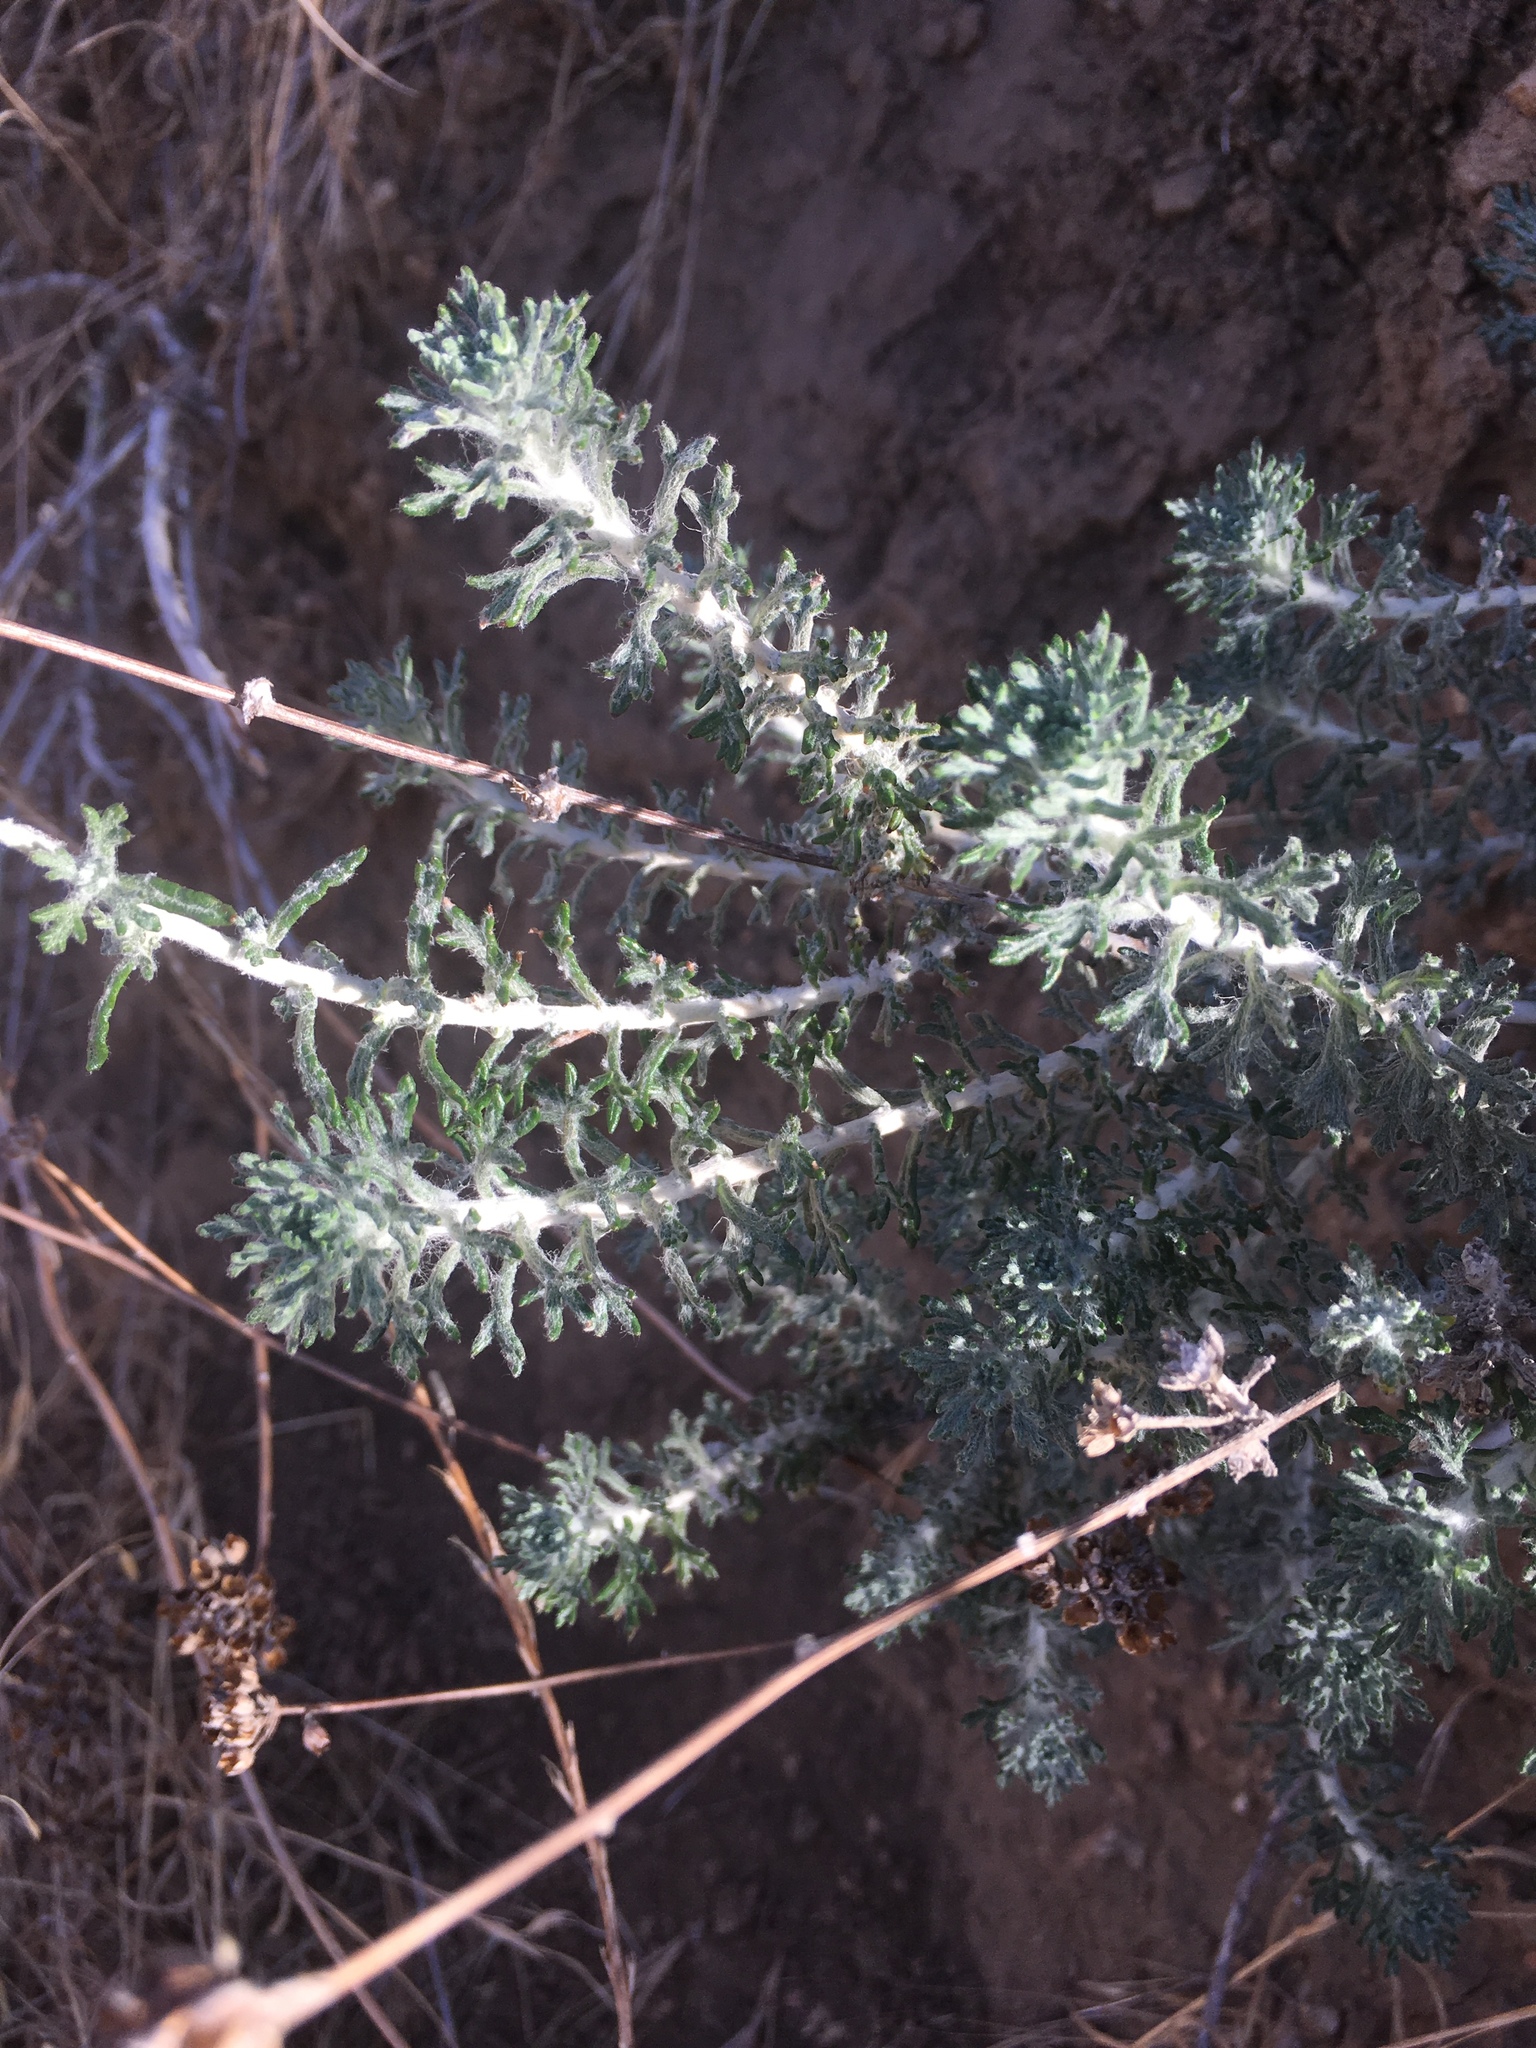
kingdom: Plantae
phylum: Tracheophyta
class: Magnoliopsida
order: Asterales
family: Asteraceae
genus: Eriophyllum
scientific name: Eriophyllum confertiflorum
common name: Golden-yarrow
